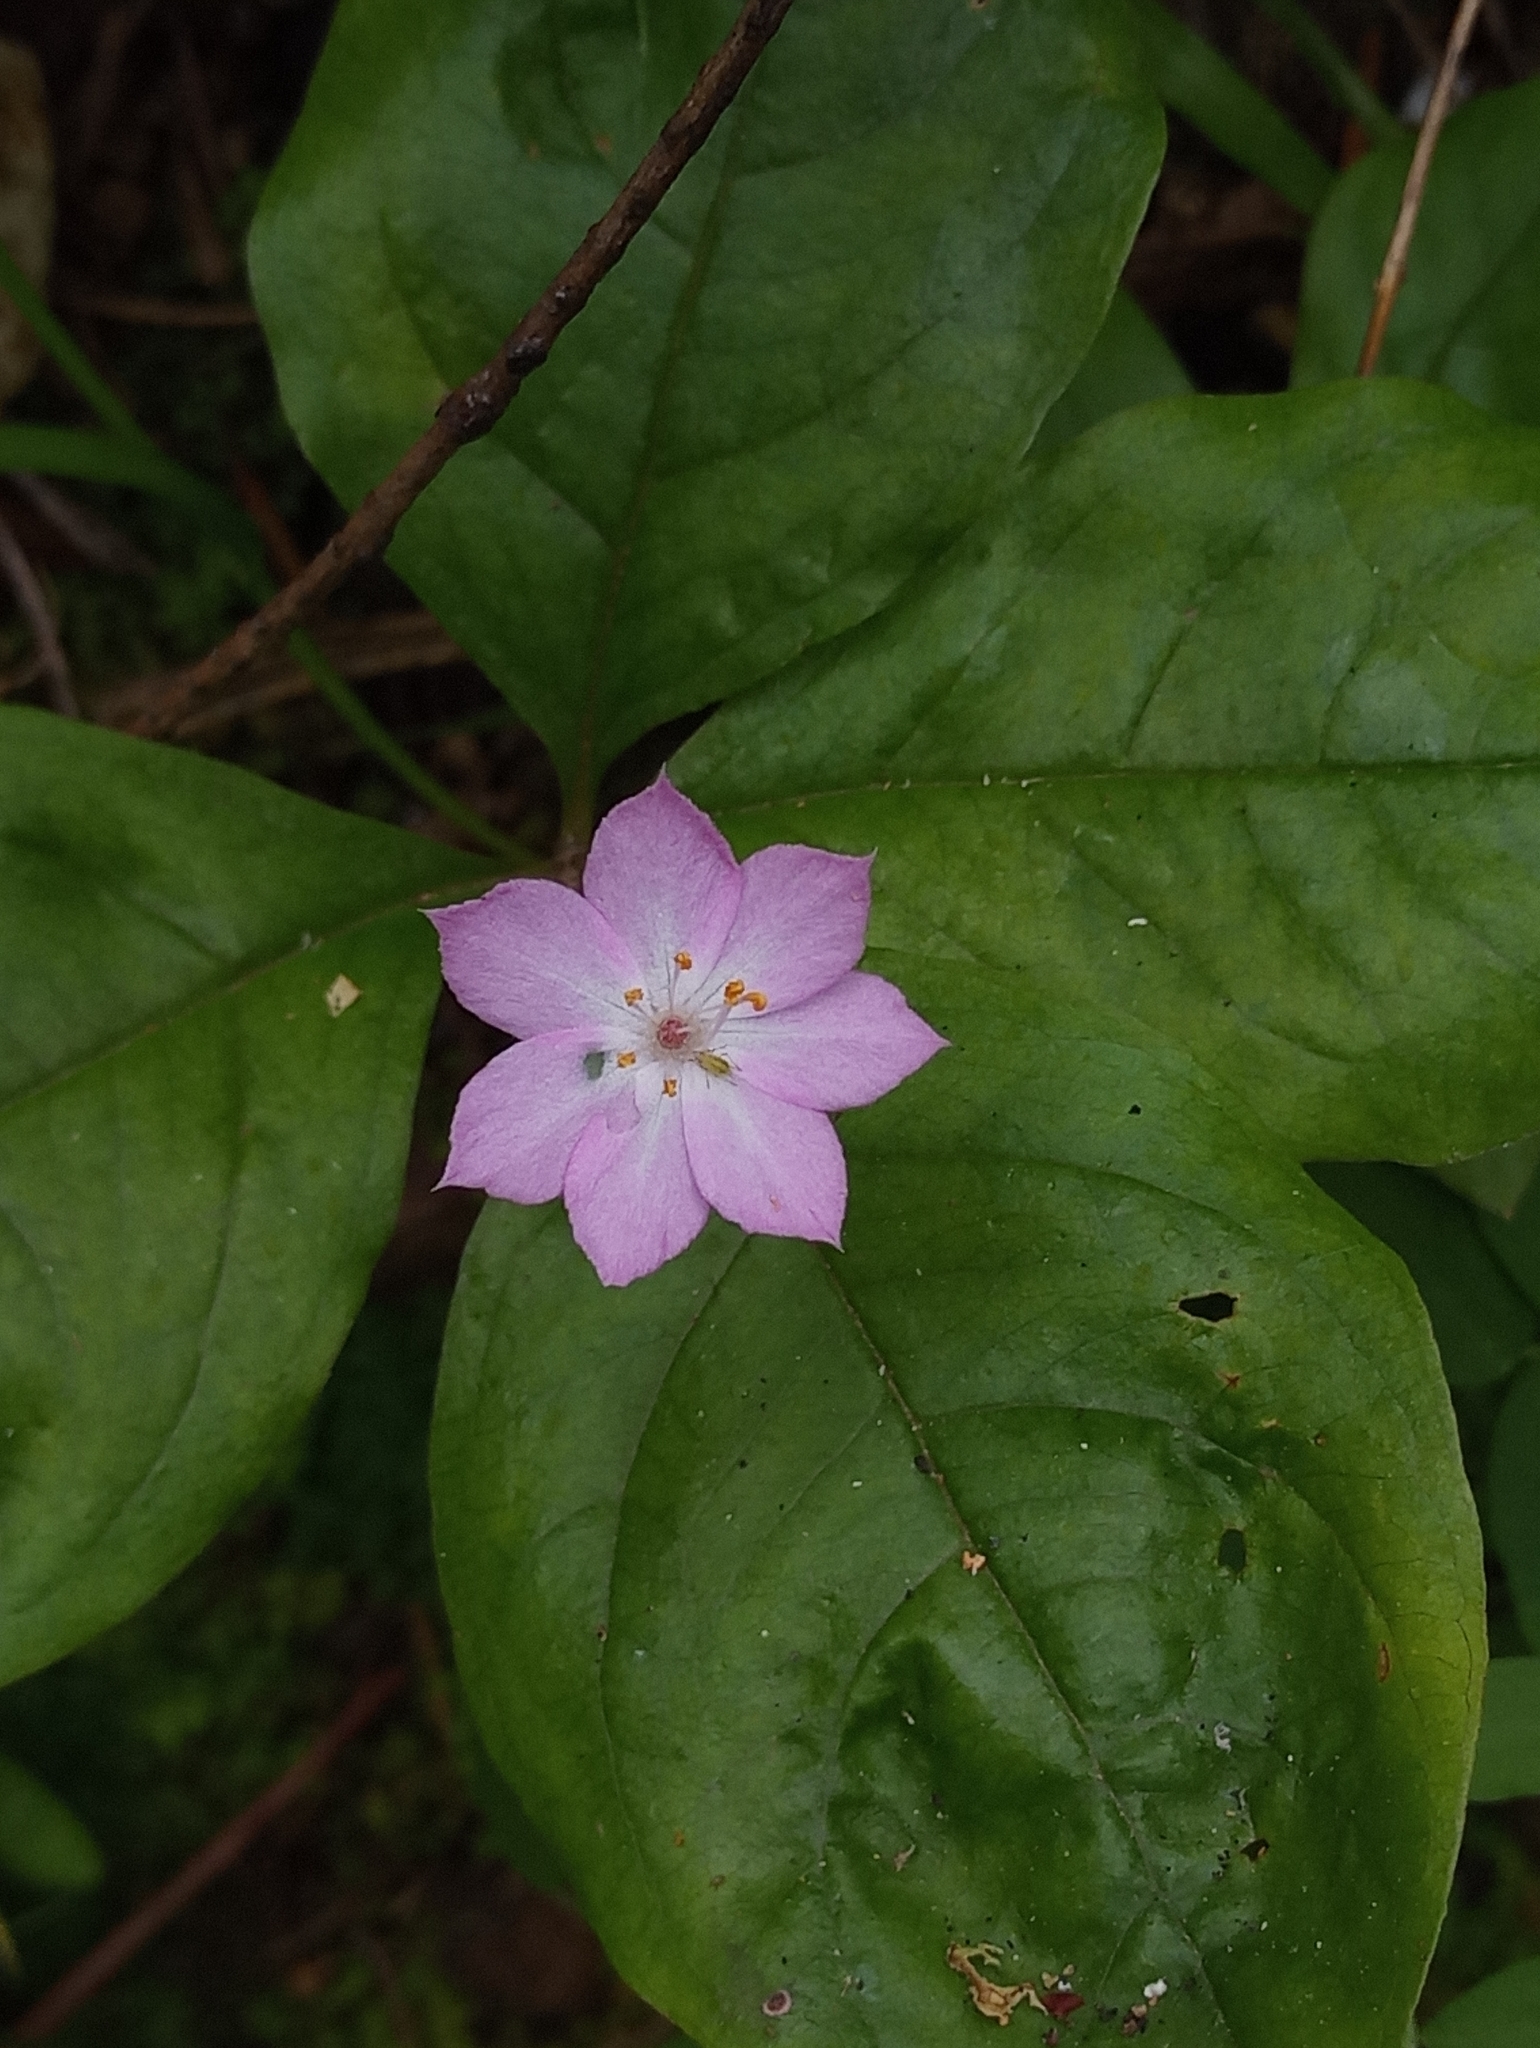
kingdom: Plantae
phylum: Tracheophyta
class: Magnoliopsida
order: Ericales
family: Primulaceae
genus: Lysimachia
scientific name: Lysimachia latifolia
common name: Pacific starflower
